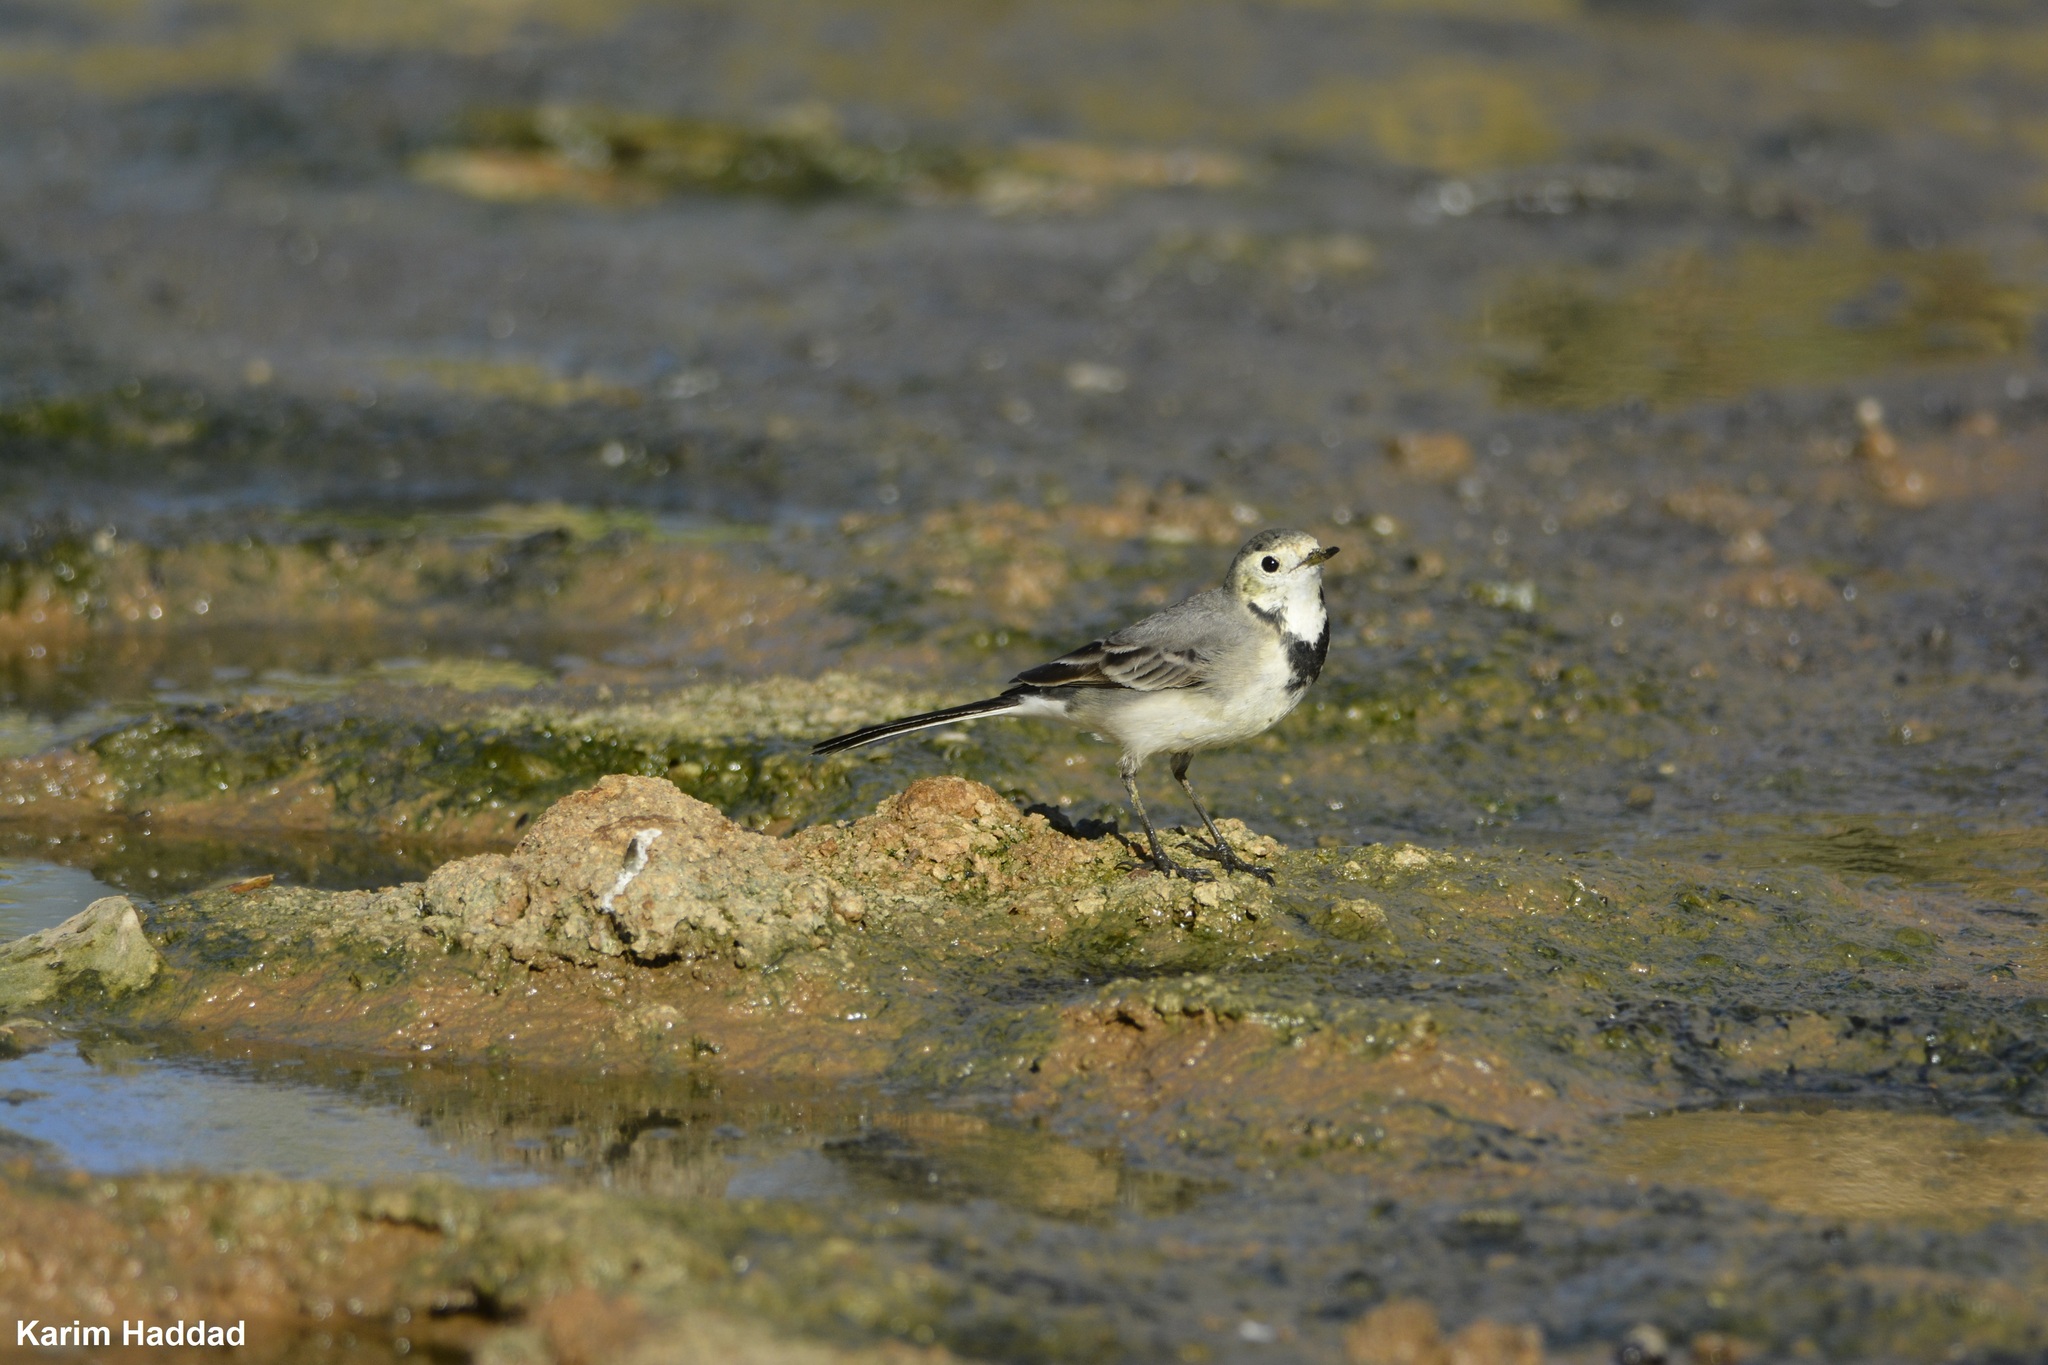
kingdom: Animalia
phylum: Chordata
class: Aves
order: Passeriformes
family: Motacillidae
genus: Motacilla
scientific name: Motacilla alba
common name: White wagtail
